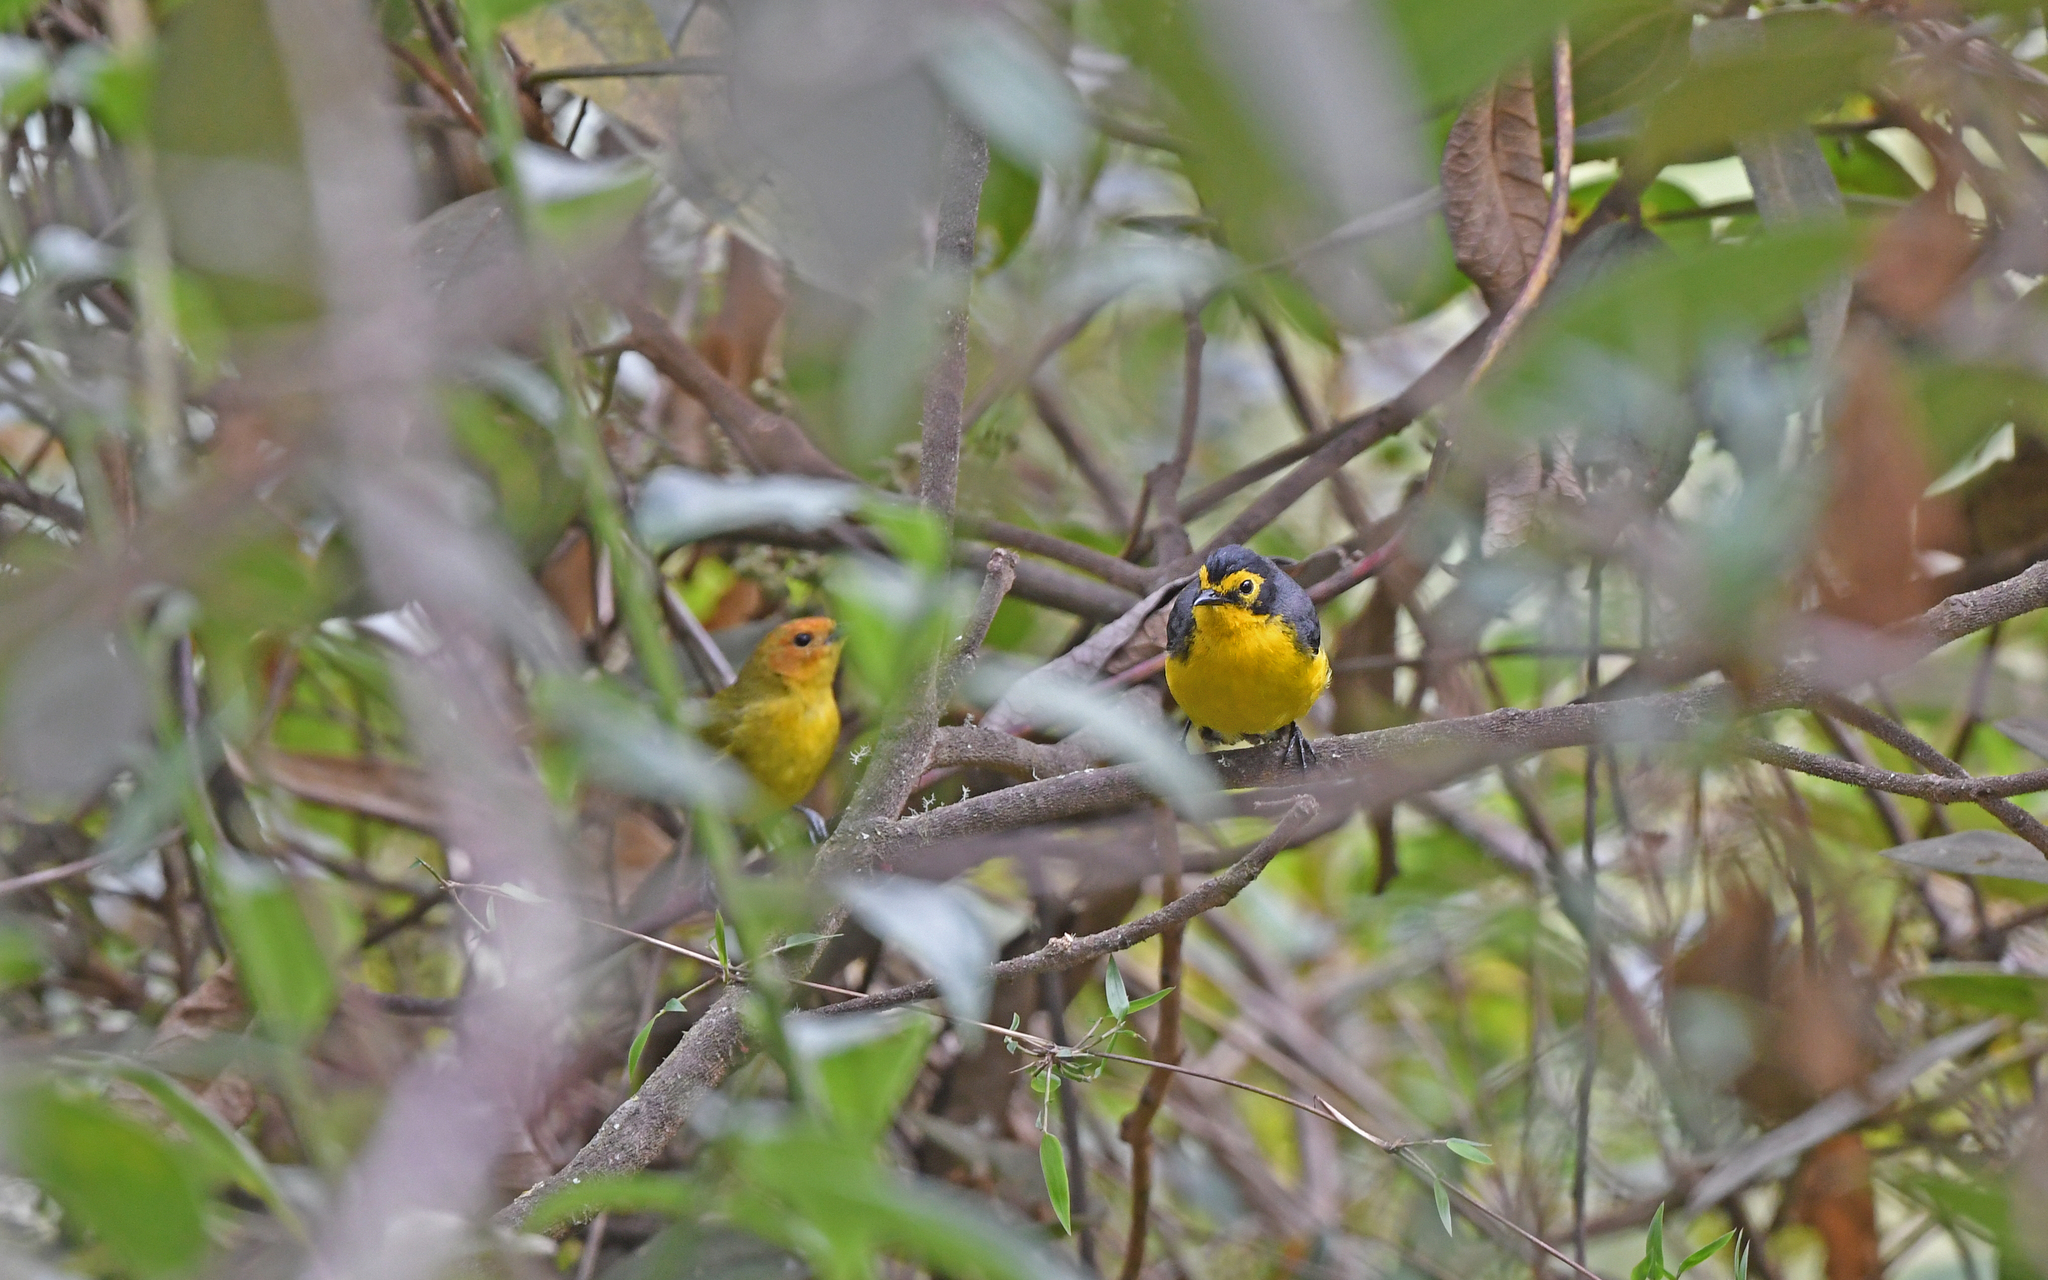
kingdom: Animalia
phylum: Chordata
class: Aves
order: Passeriformes
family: Parulidae
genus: Myioborus
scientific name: Myioborus melanocephalus
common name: Spectacled whitestart
